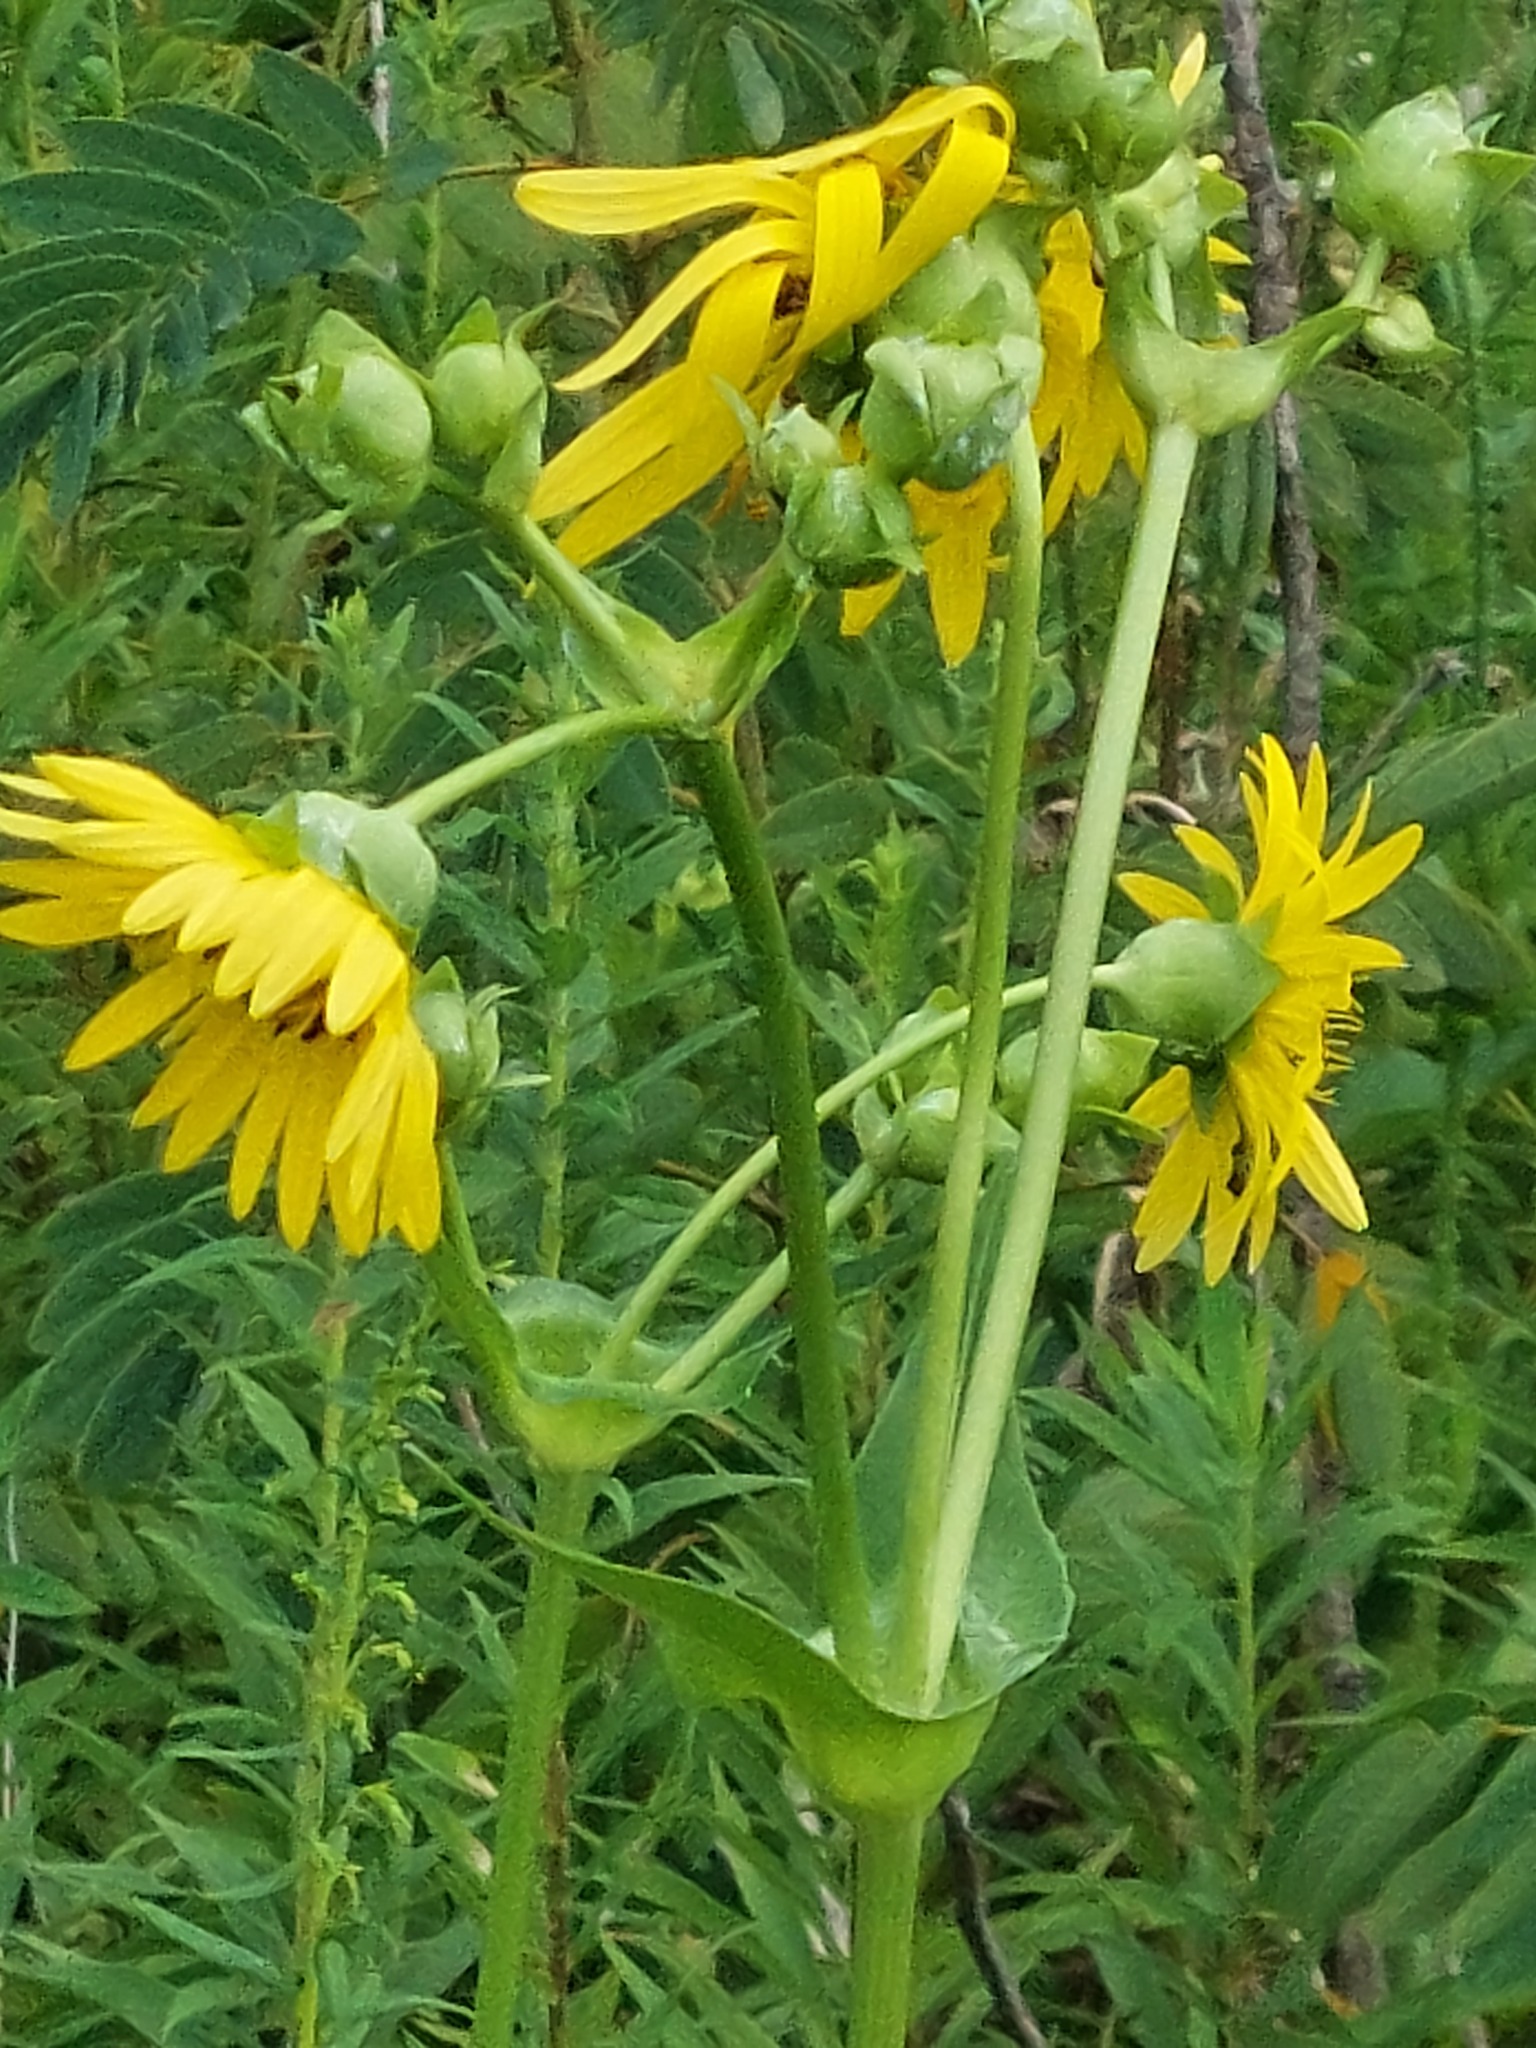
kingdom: Plantae
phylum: Tracheophyta
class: Magnoliopsida
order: Asterales
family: Asteraceae
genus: Silphium
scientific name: Silphium perfoliatum
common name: Cup-plant
